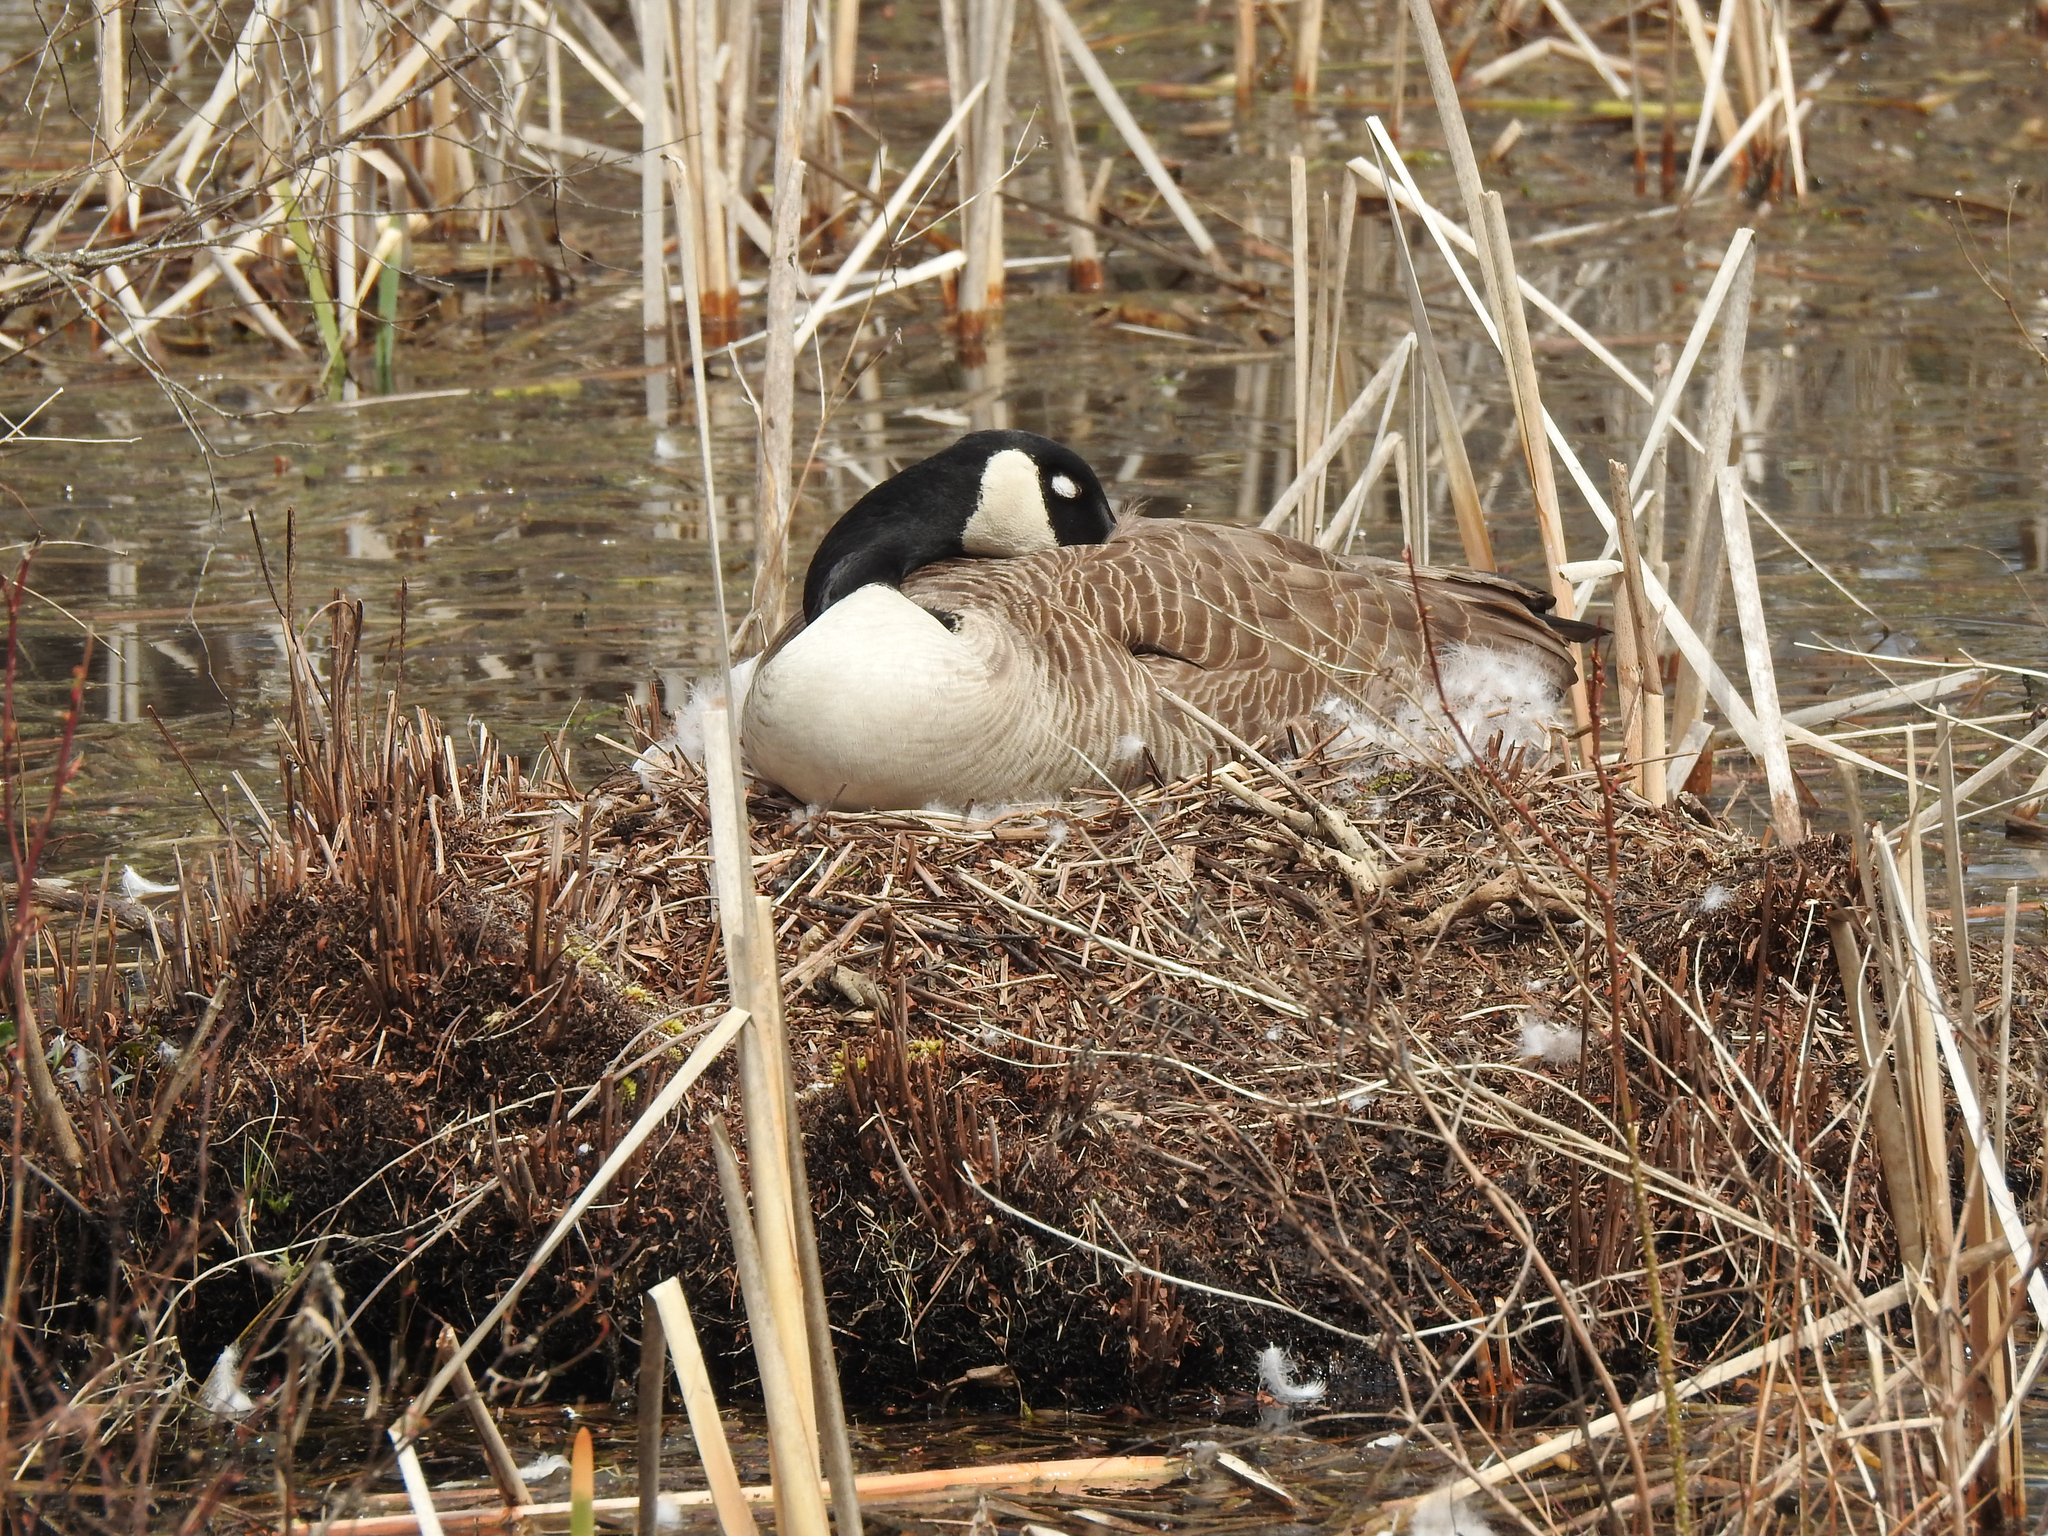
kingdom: Animalia
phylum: Chordata
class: Aves
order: Anseriformes
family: Anatidae
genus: Branta
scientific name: Branta canadensis
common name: Canada goose
